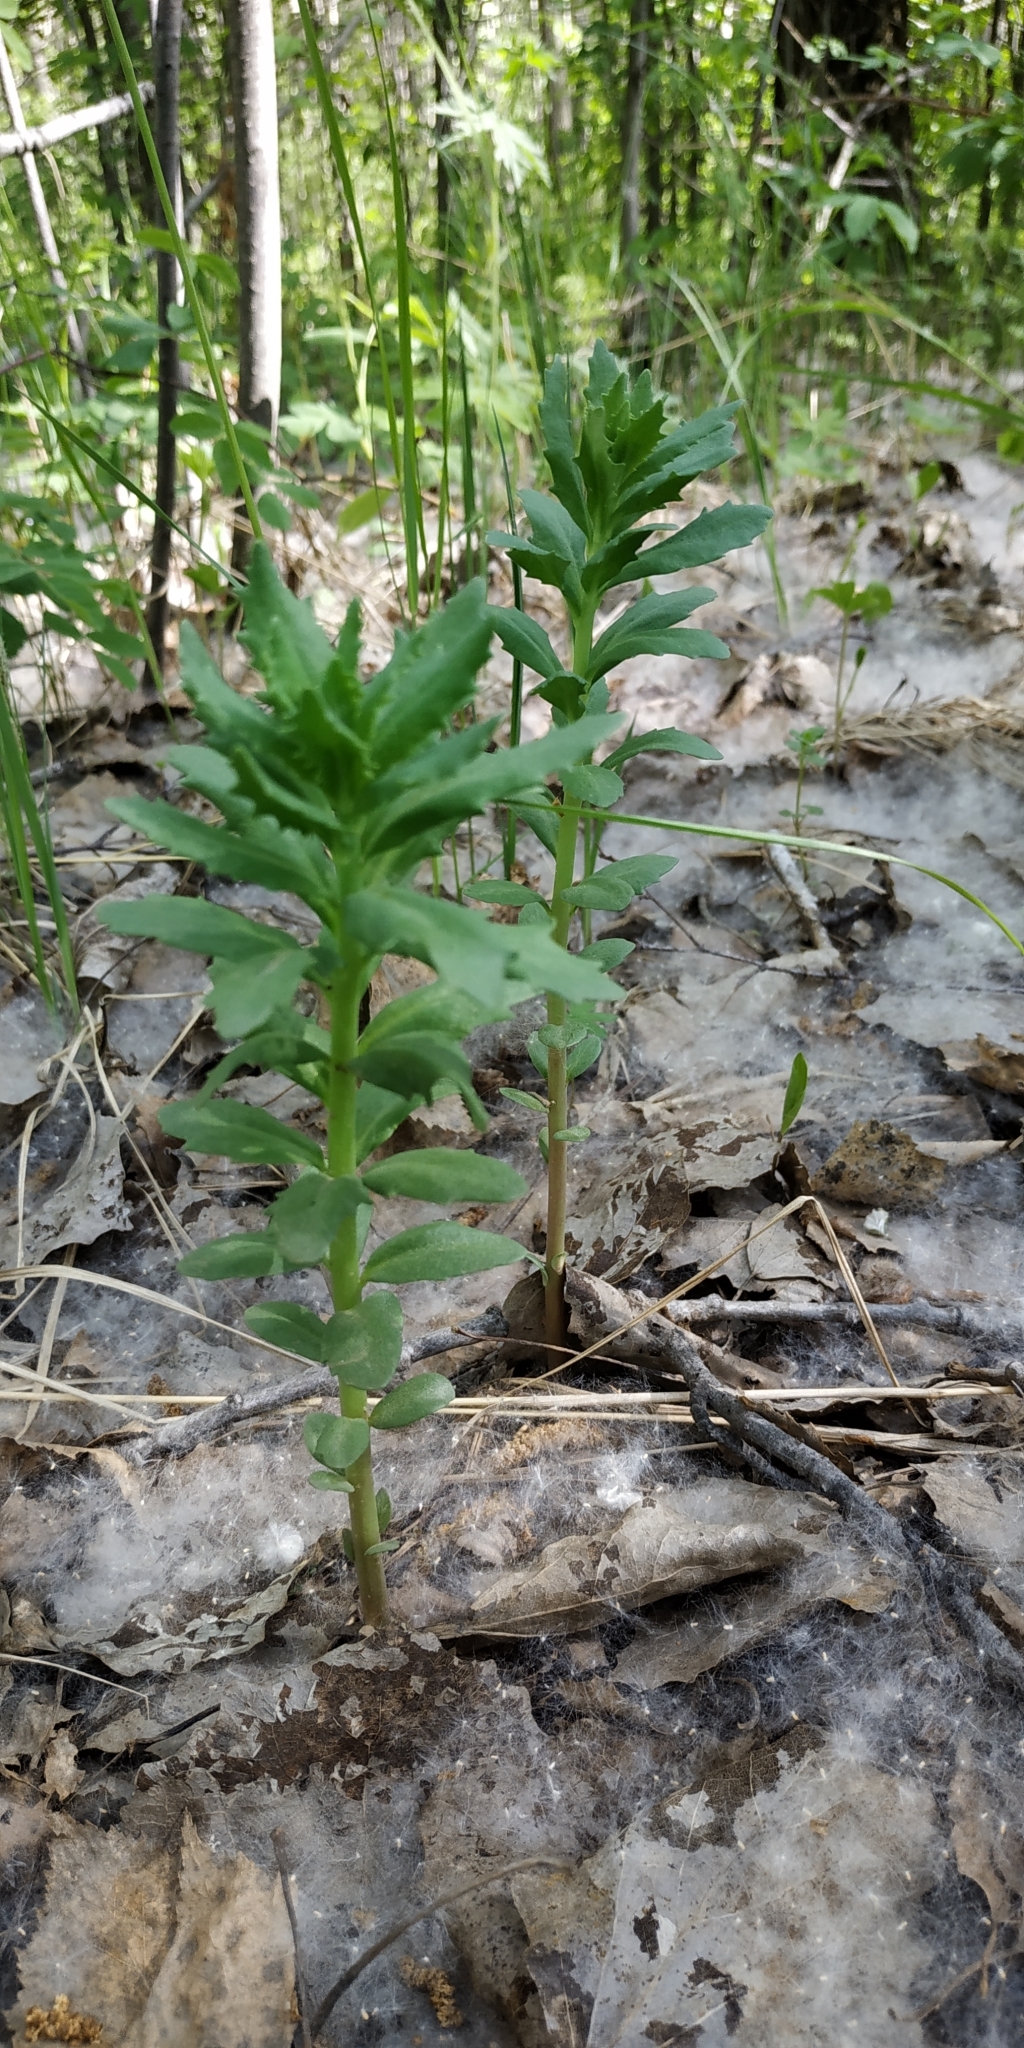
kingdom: Plantae
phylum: Tracheophyta
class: Magnoliopsida
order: Saxifragales
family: Crassulaceae
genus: Hylotelephium
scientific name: Hylotelephium telephium
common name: Live-forever
